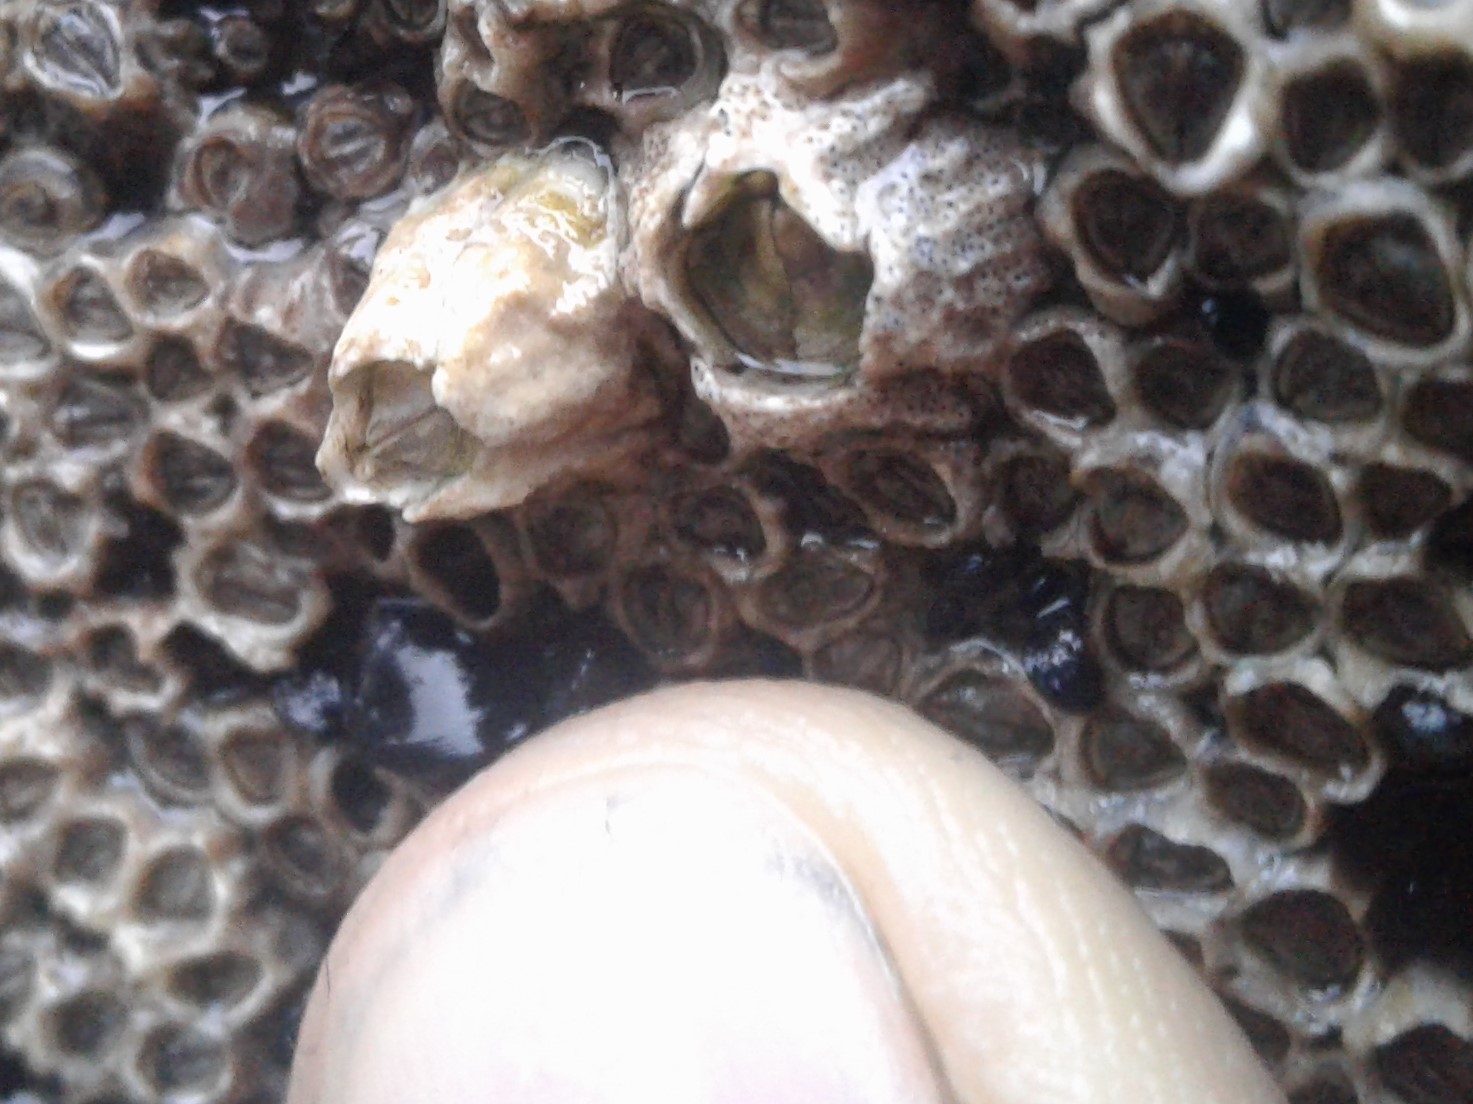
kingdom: Animalia
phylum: Arthropoda
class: Maxillopoda
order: Sessilia
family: Tetraclitidae
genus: Epopella
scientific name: Epopella plicata
